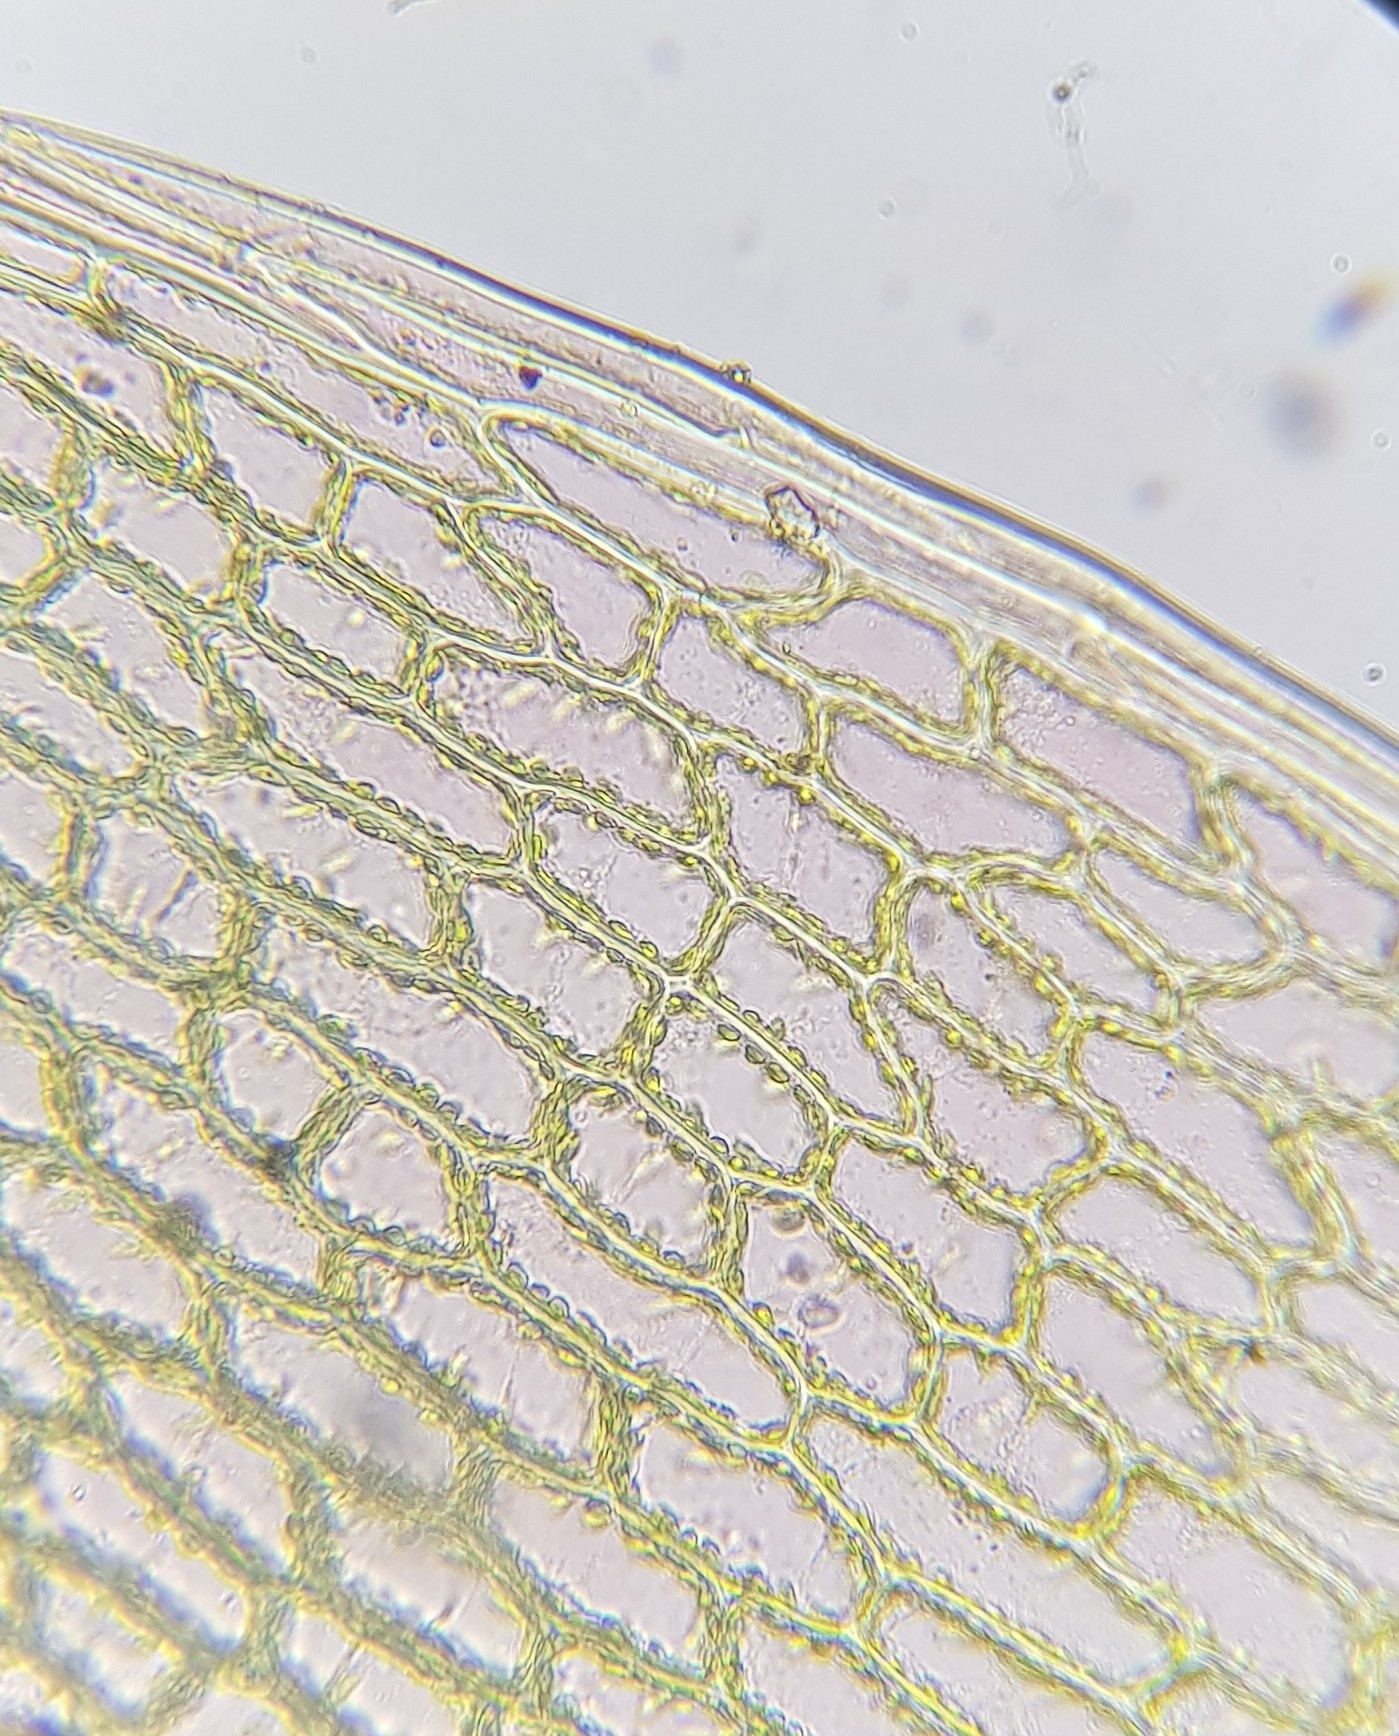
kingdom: Plantae
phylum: Bryophyta
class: Bryopsida
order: Bryales
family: Bryaceae
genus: Ptychostomum
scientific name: Ptychostomum pallens
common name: Pale thread-moss
